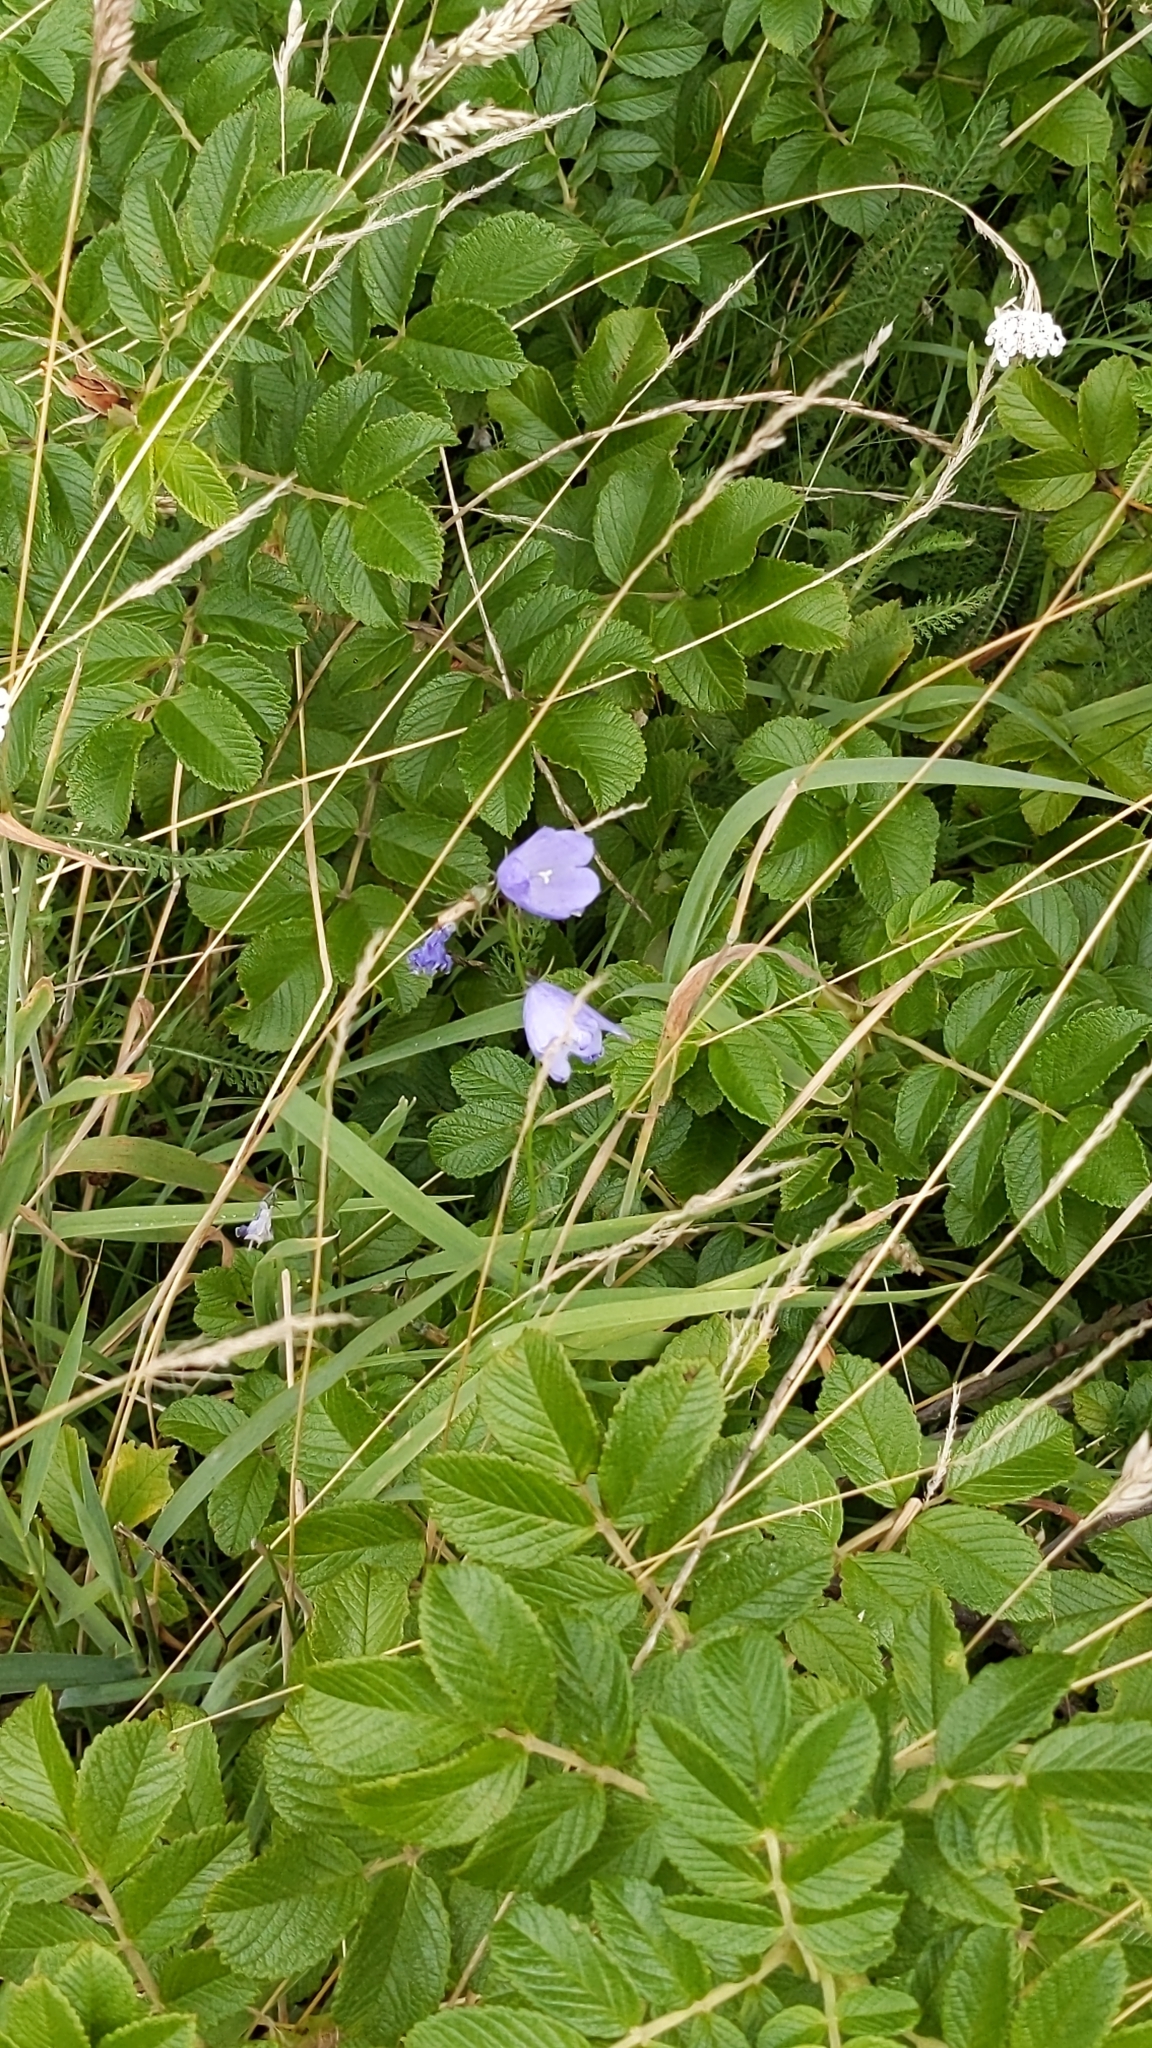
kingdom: Plantae
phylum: Tracheophyta
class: Magnoliopsida
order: Asterales
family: Campanulaceae
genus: Campanula
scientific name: Campanula rotundifolia
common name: Harebell
